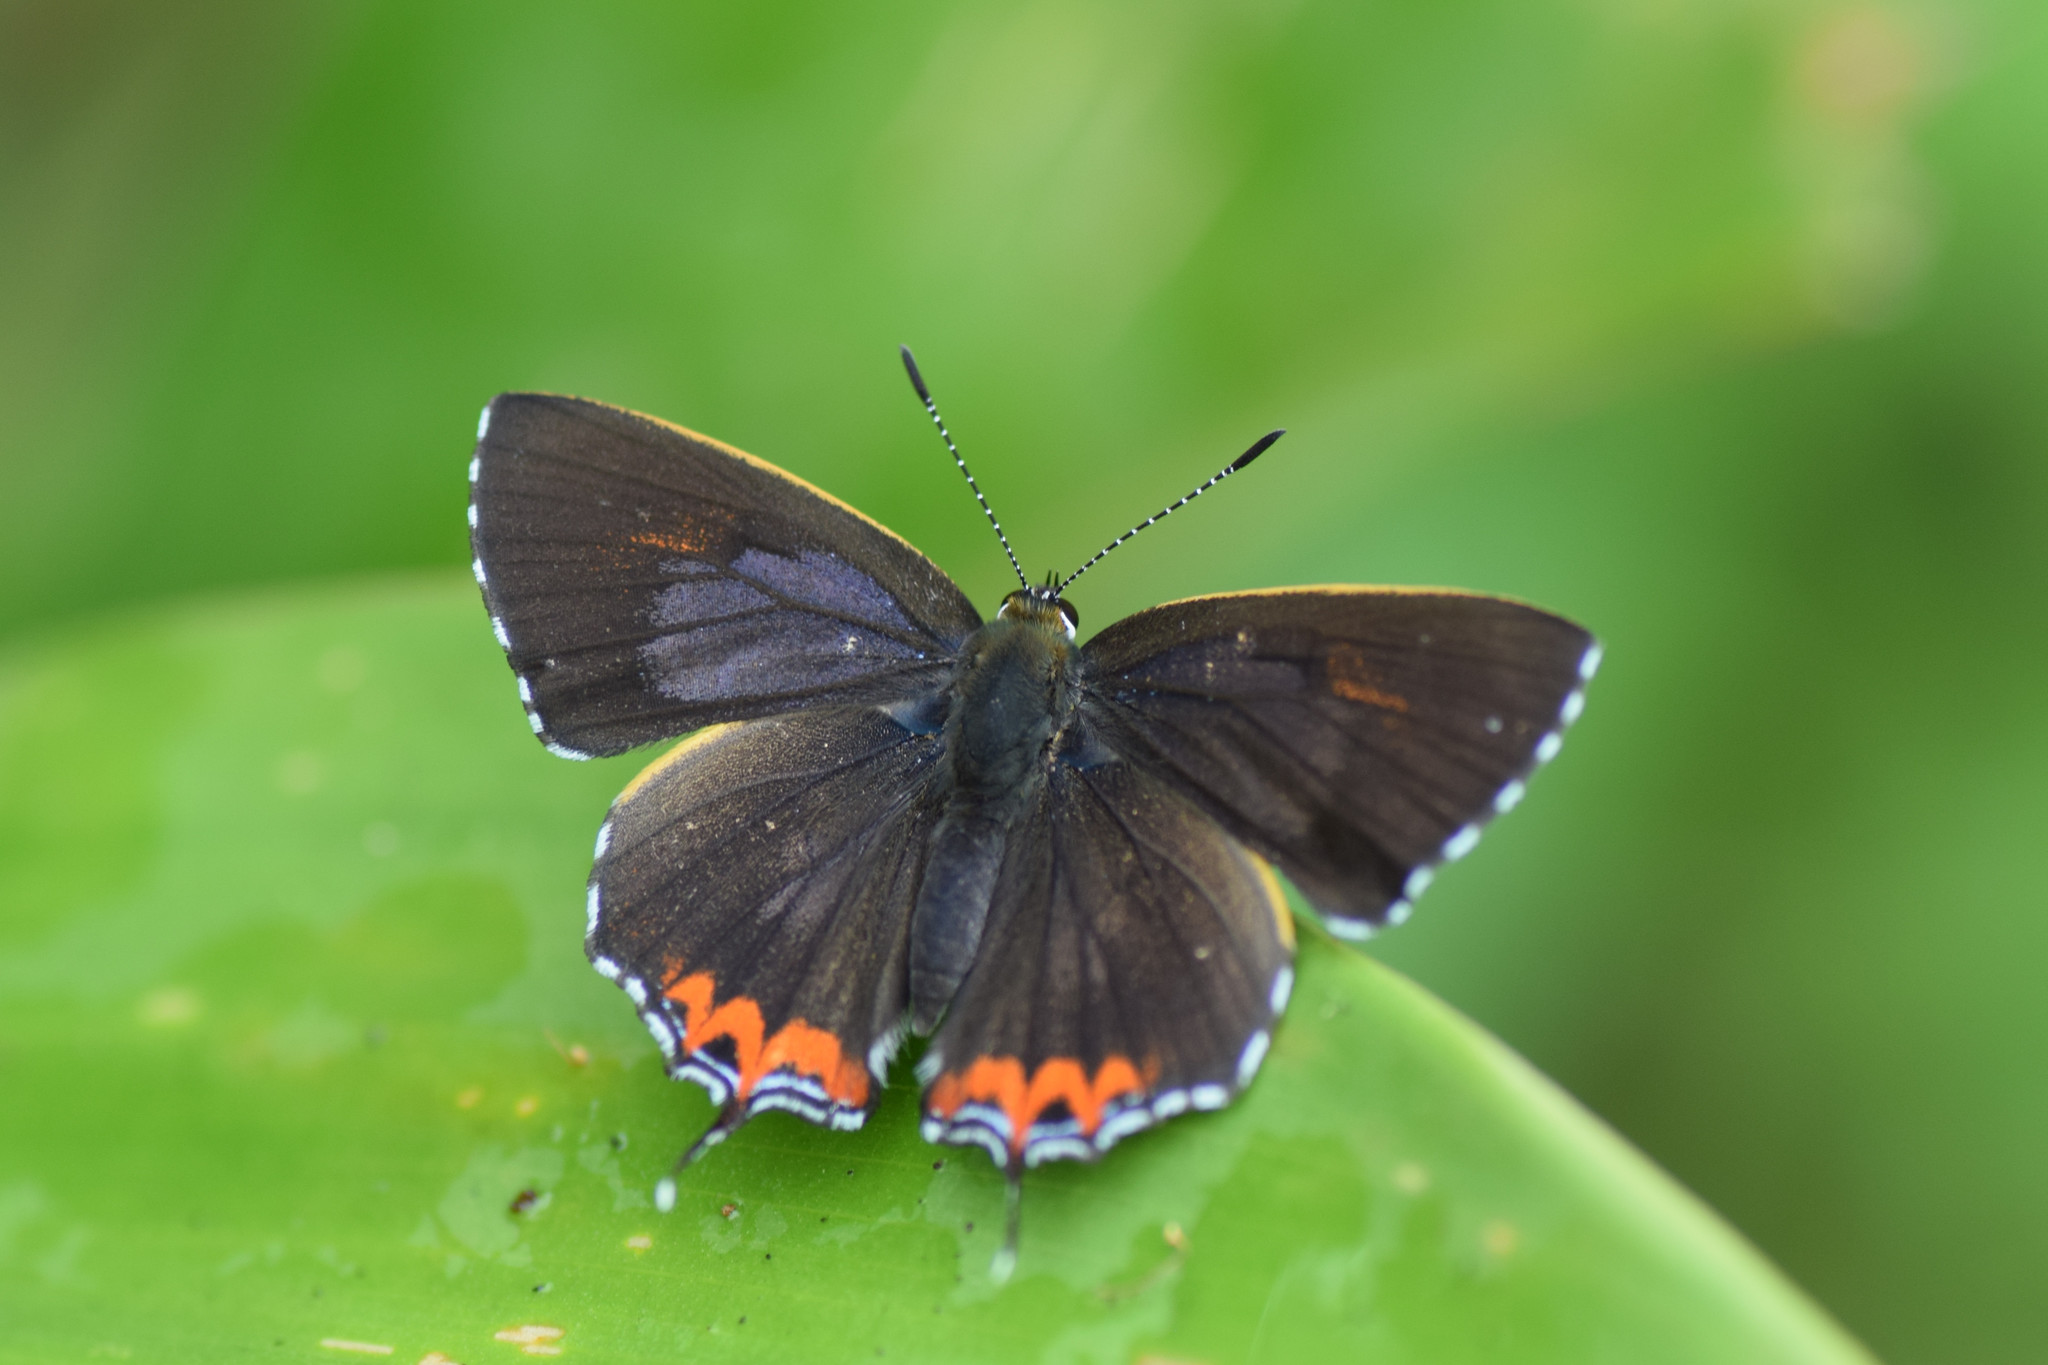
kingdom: Animalia
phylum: Arthropoda
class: Insecta
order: Lepidoptera
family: Lycaenidae
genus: Heliophorus
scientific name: Heliophorus epicles
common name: Purple sapphire
